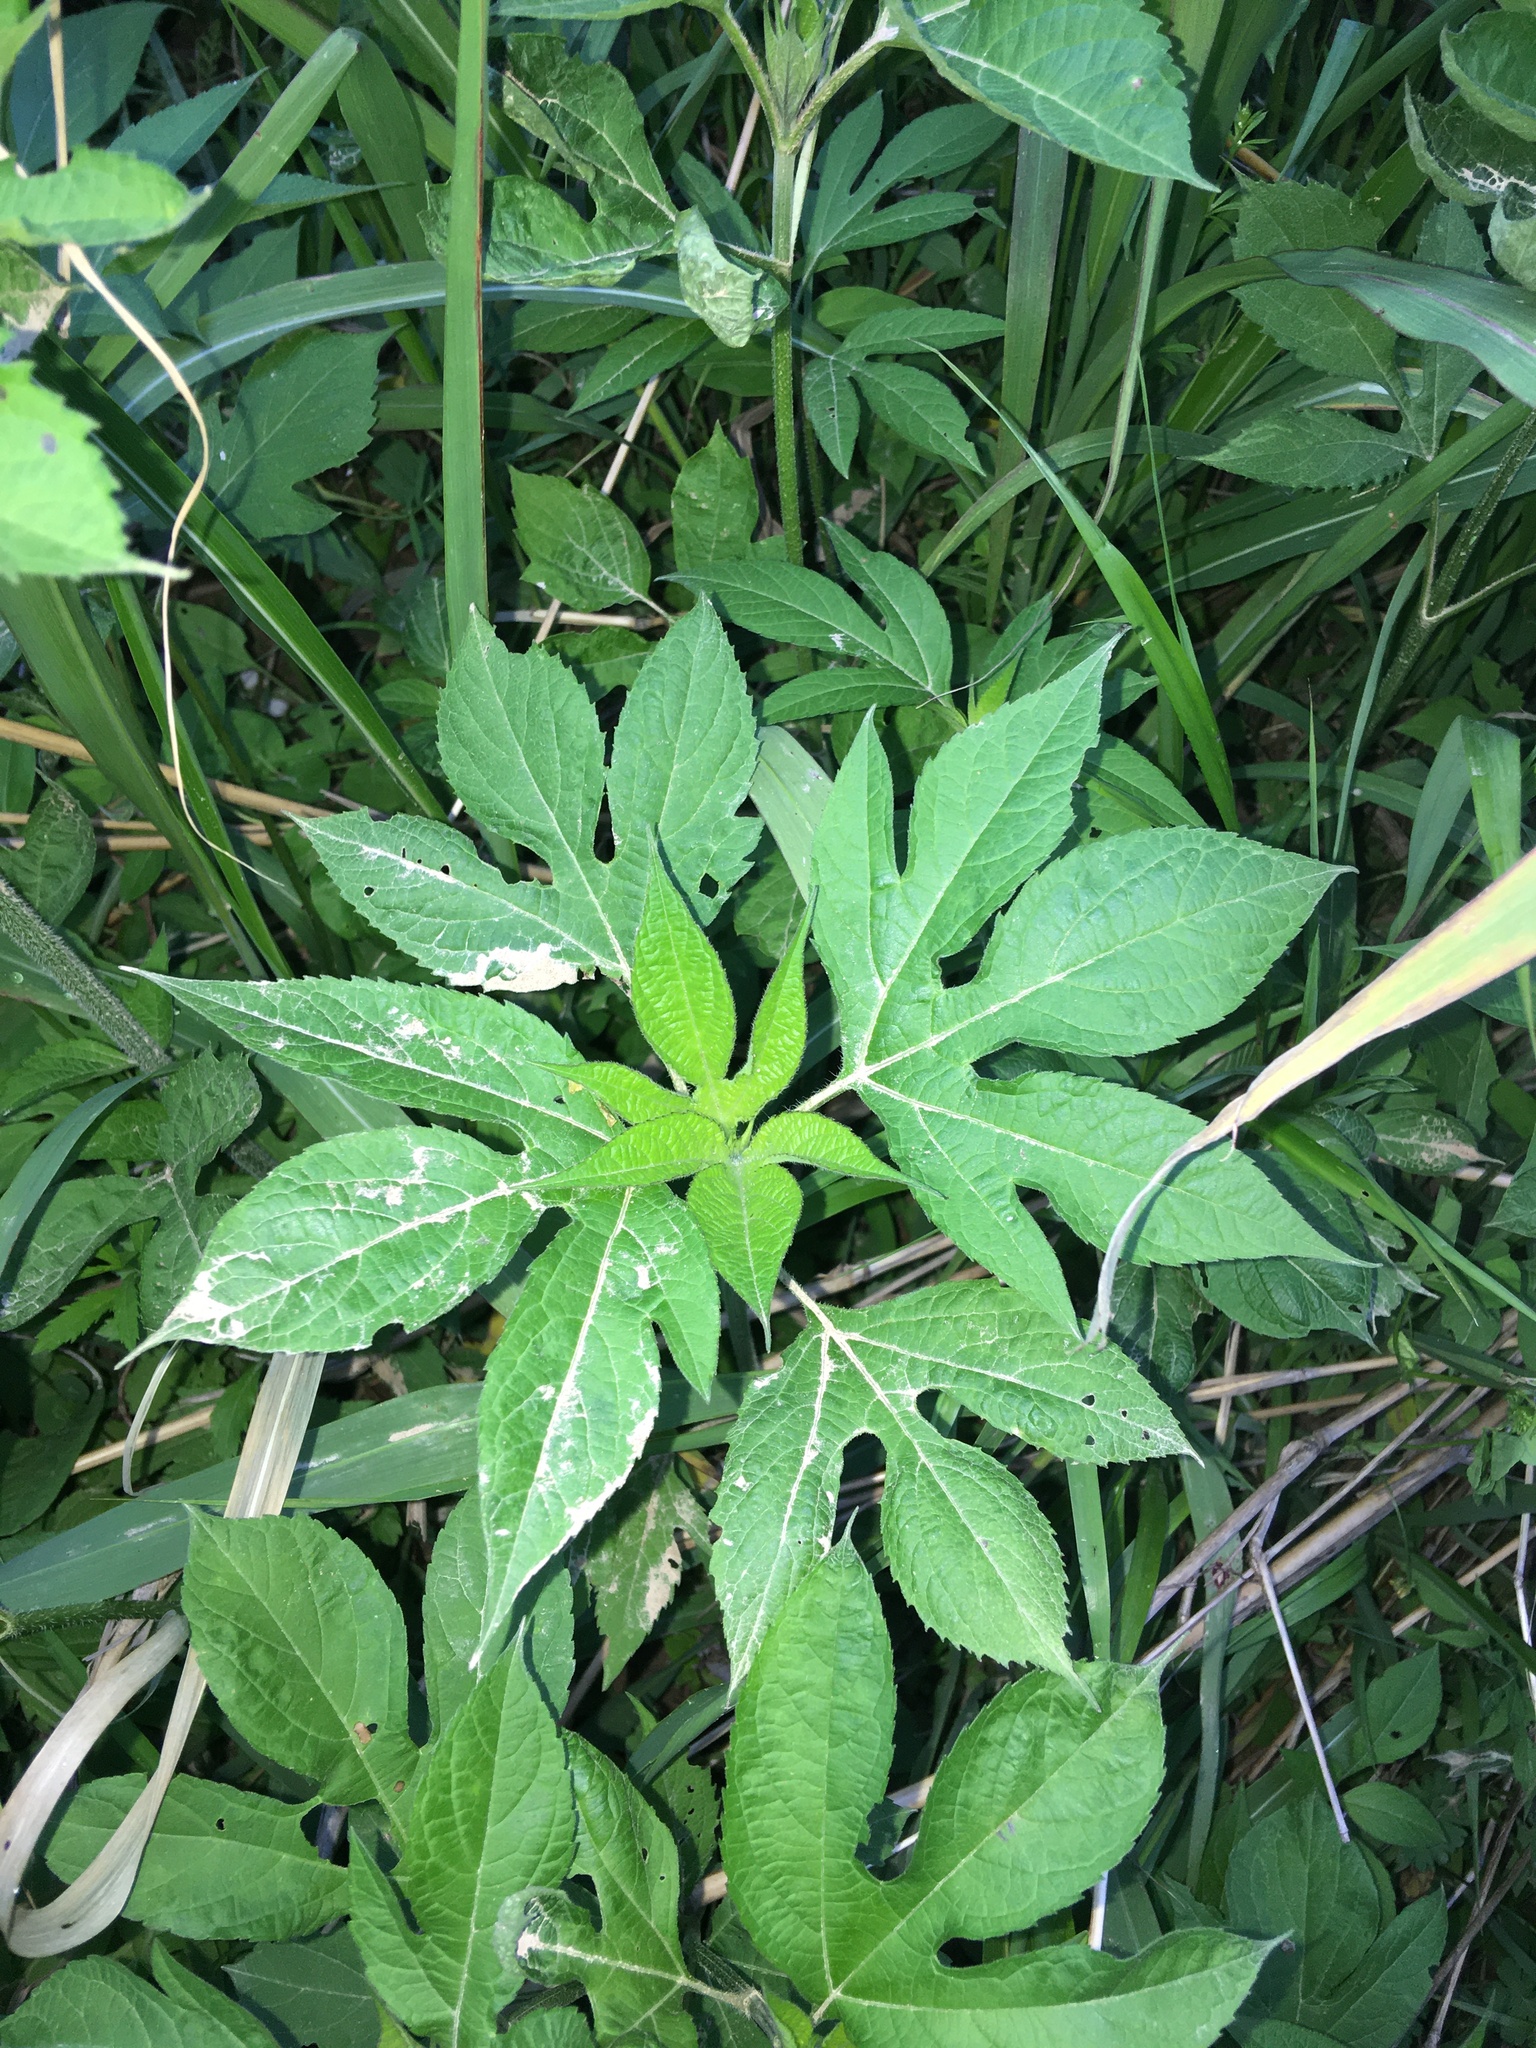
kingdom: Plantae
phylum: Tracheophyta
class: Magnoliopsida
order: Asterales
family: Asteraceae
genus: Ambrosia
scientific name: Ambrosia trifida
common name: Giant ragweed
